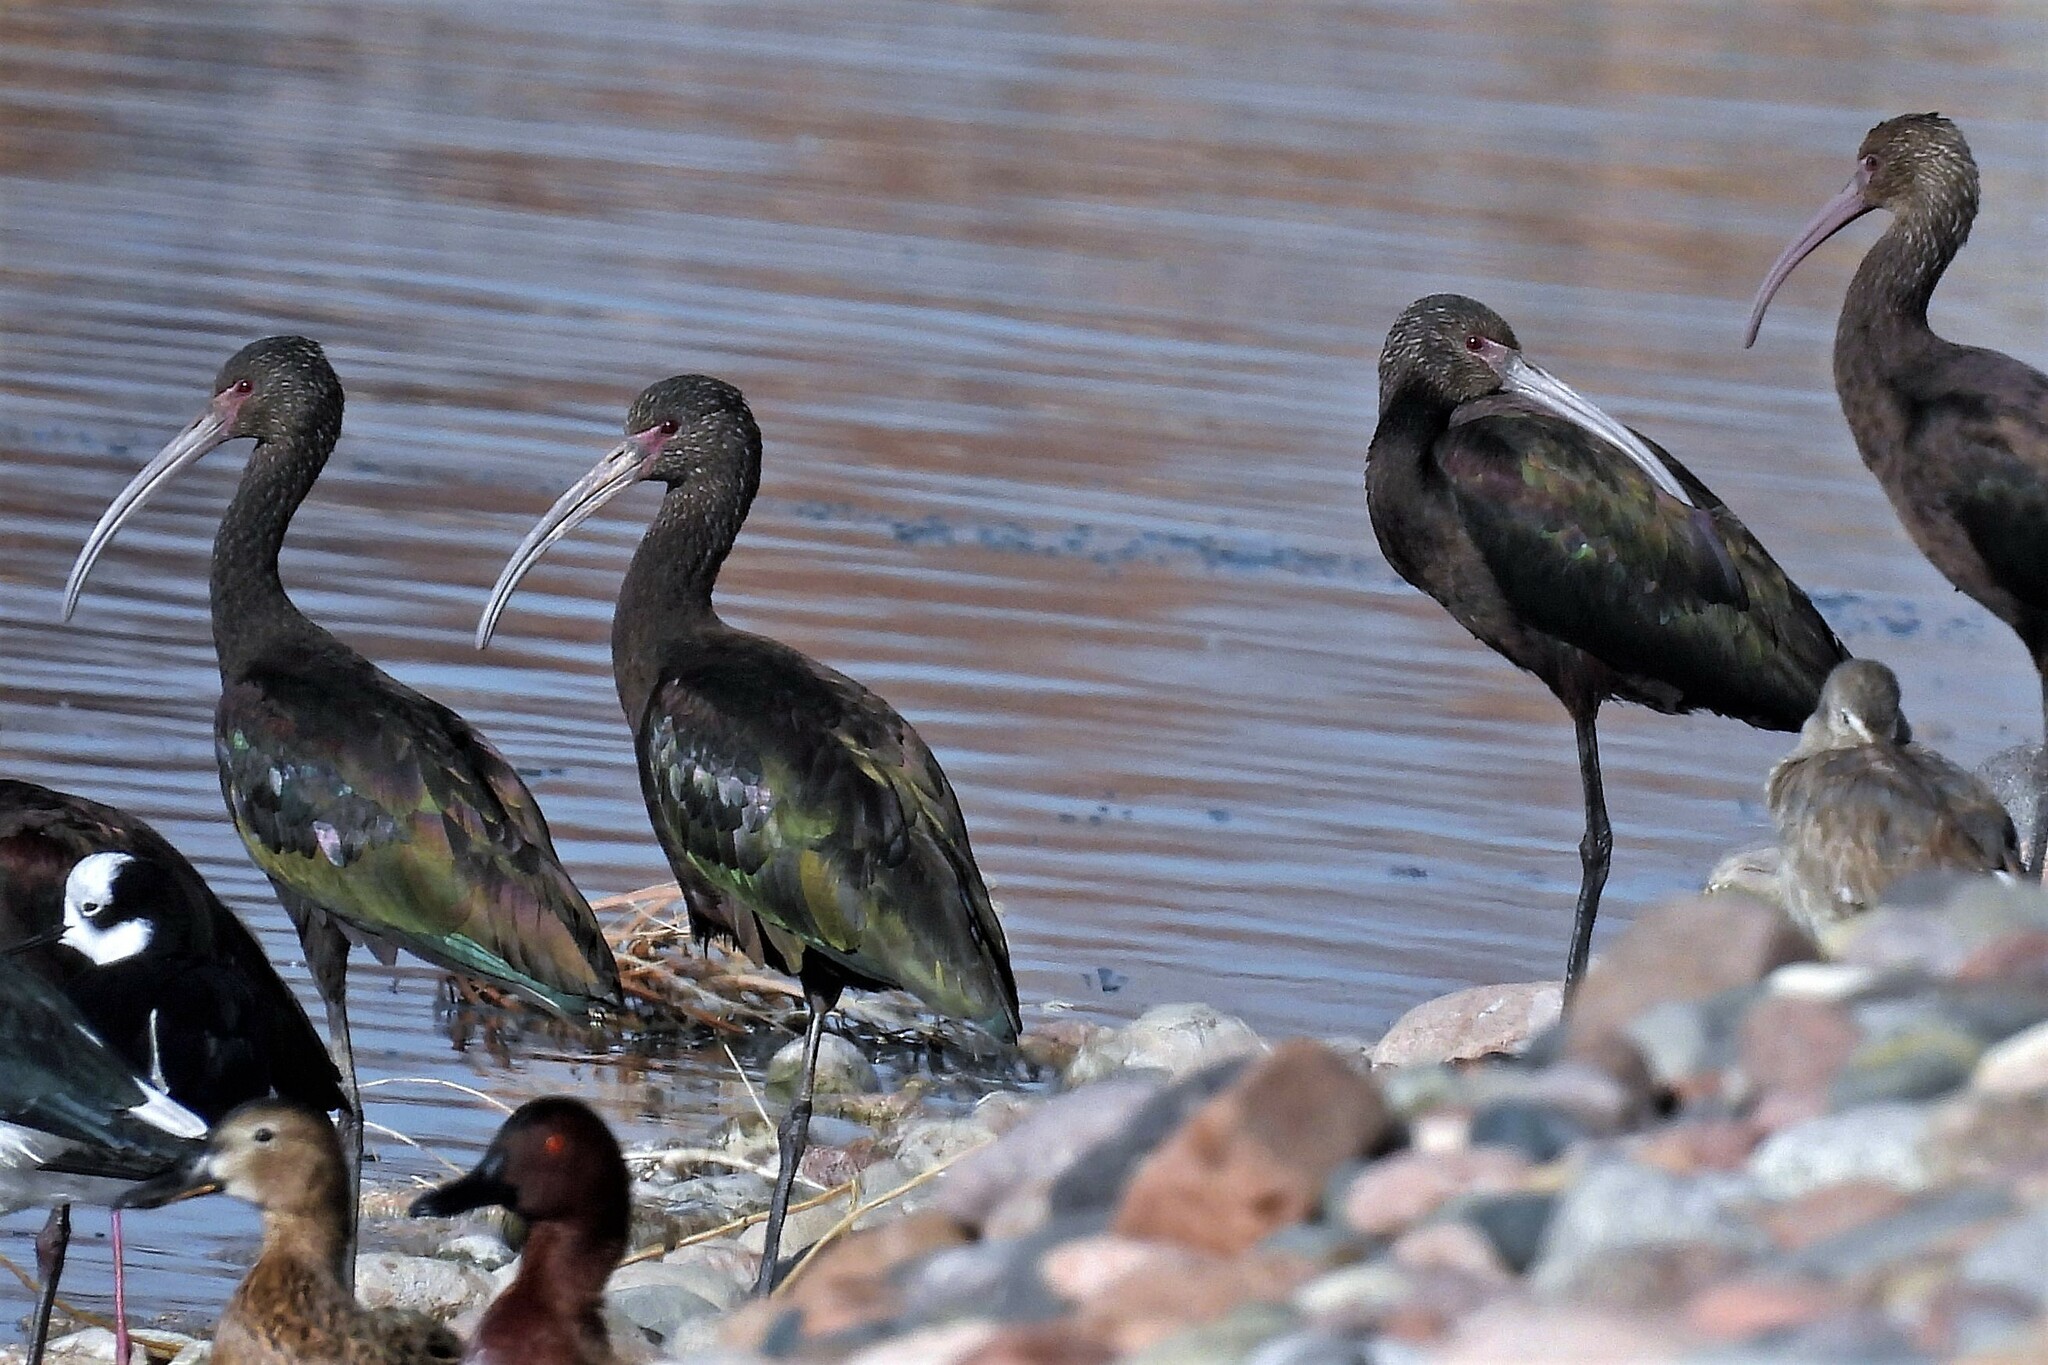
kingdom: Animalia
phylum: Chordata
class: Aves
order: Pelecaniformes
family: Threskiornithidae
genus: Plegadis
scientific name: Plegadis chihi
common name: White-faced ibis
